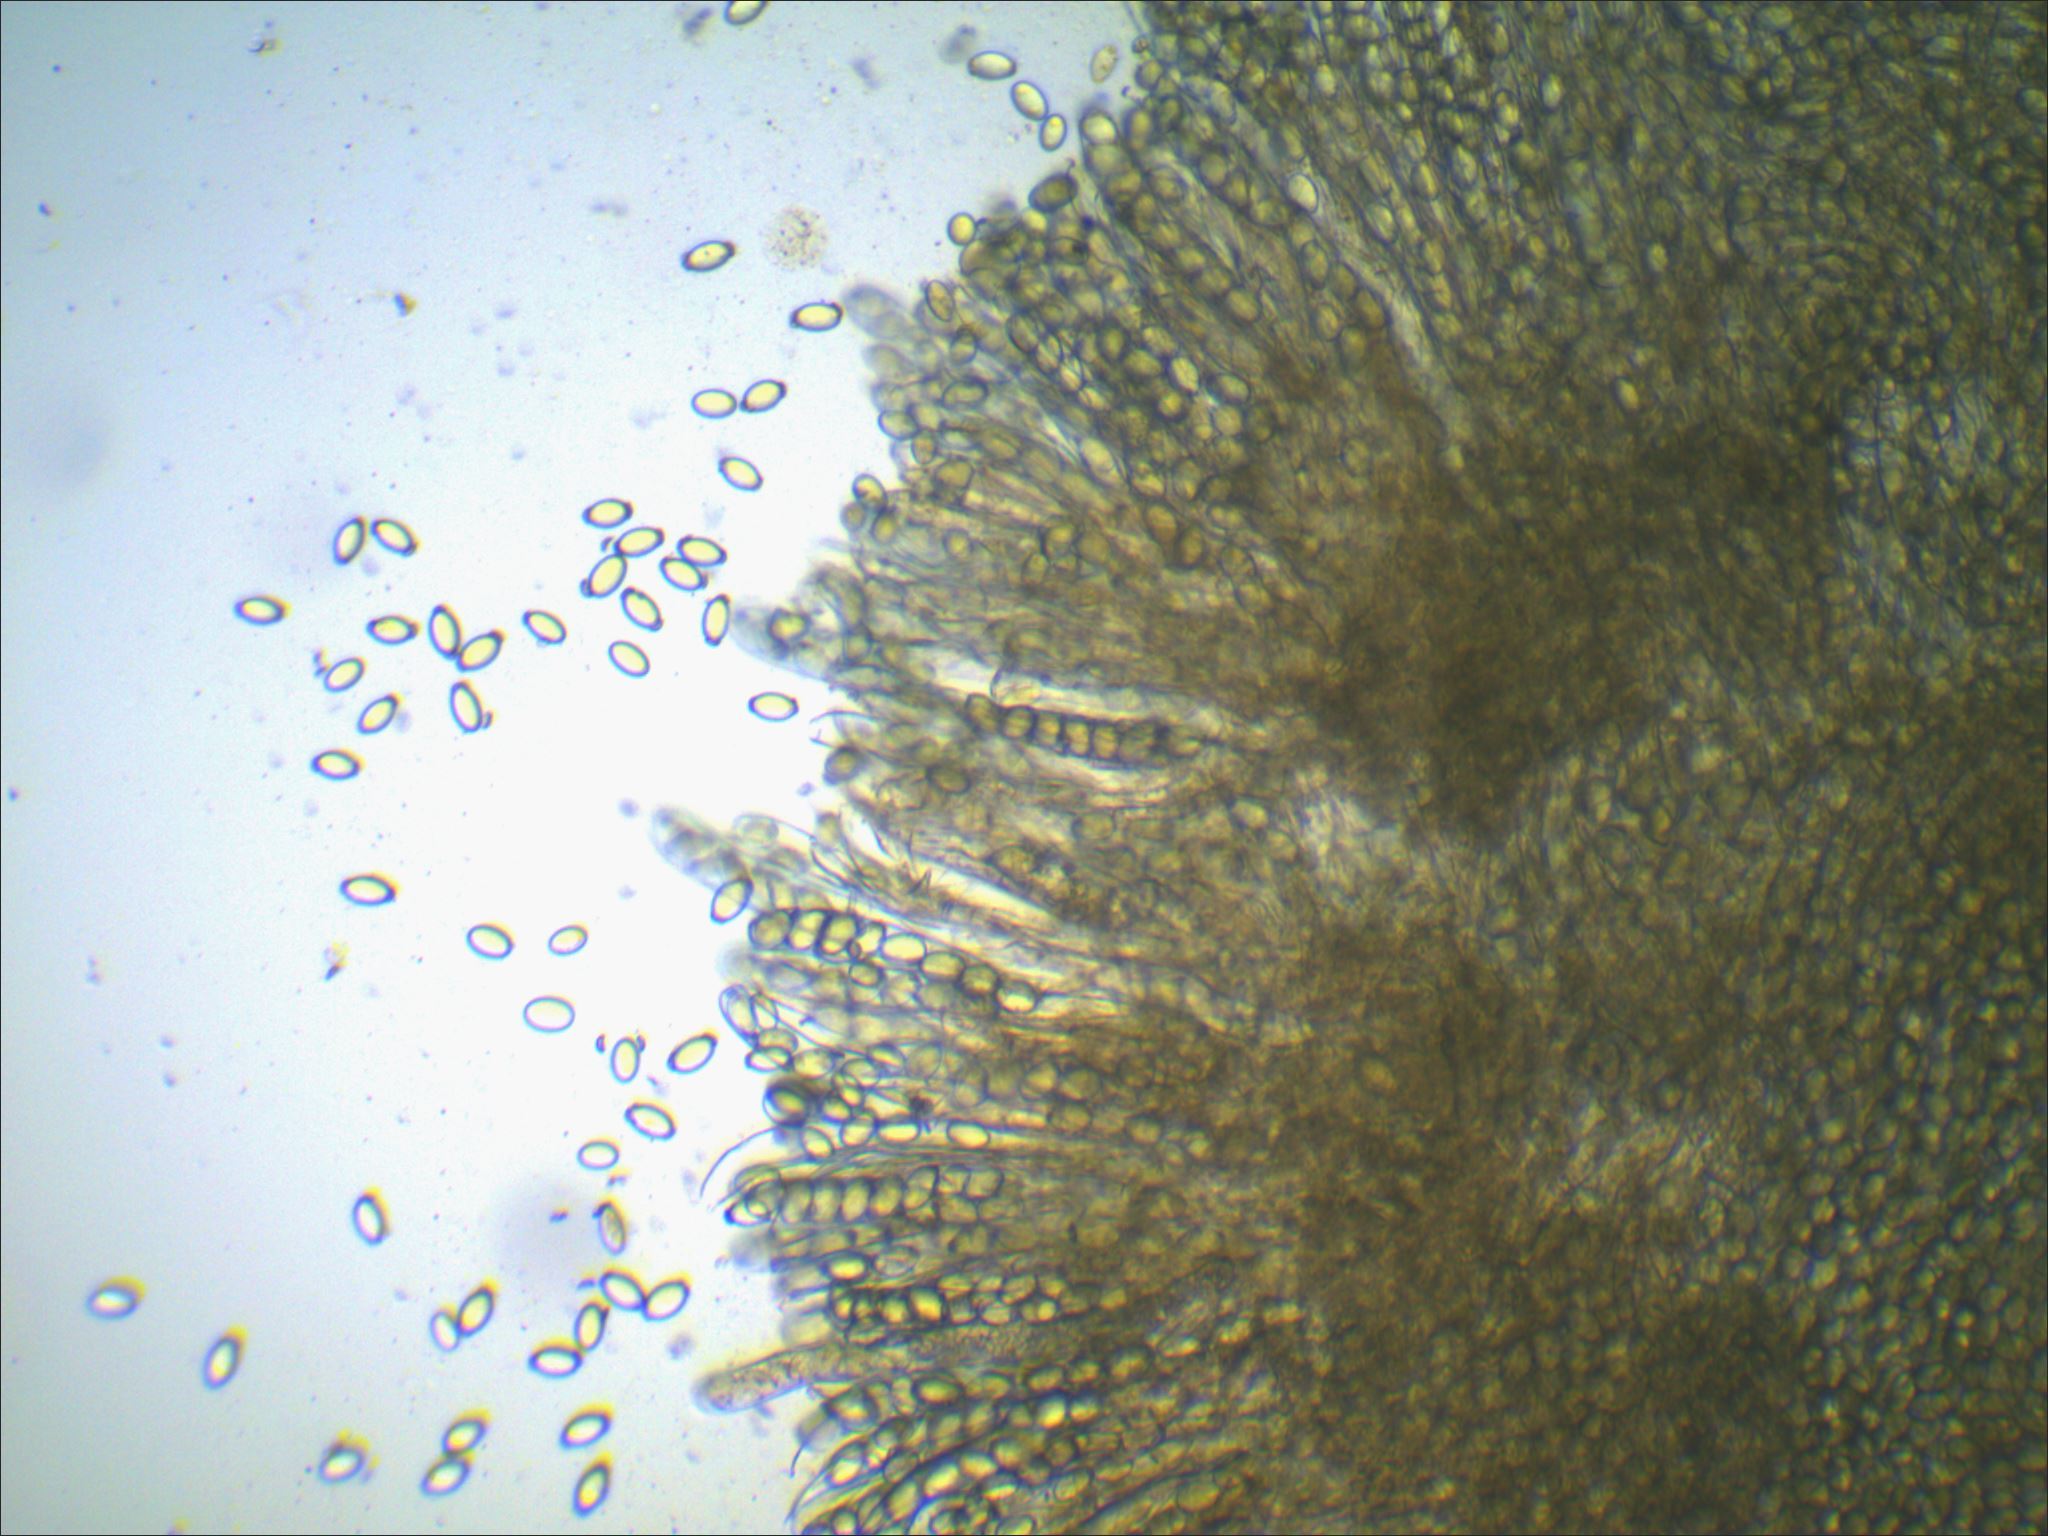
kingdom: Fungi
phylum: Ascomycota
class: Pezizomycetes
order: Pezizales
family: Morchellaceae
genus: Morchella
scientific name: Morchella americana
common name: White morel
